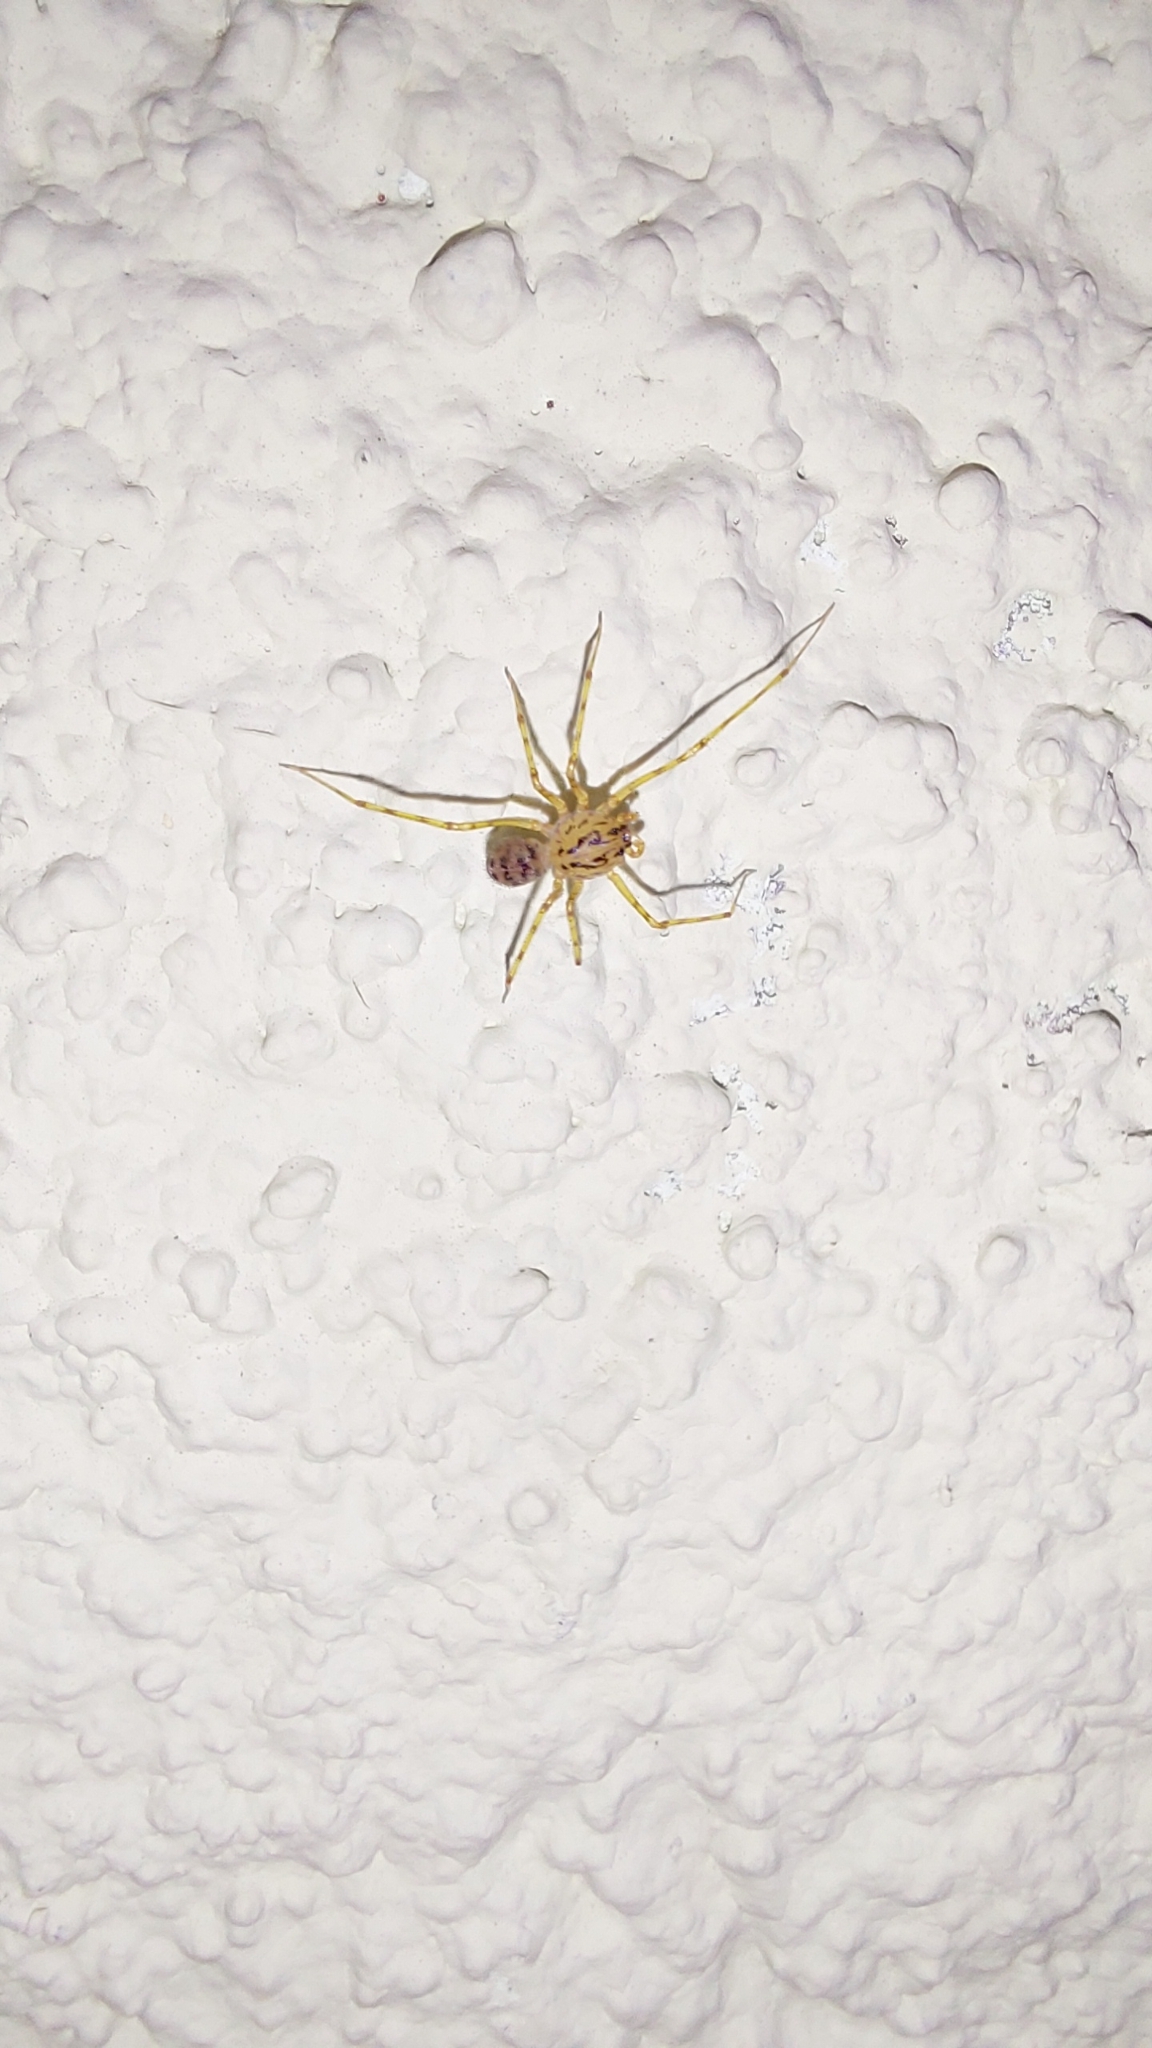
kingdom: Animalia
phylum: Arthropoda
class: Arachnida
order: Araneae
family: Scytodidae
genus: Scytodes
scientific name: Scytodes thoracica
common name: Spitting spider
